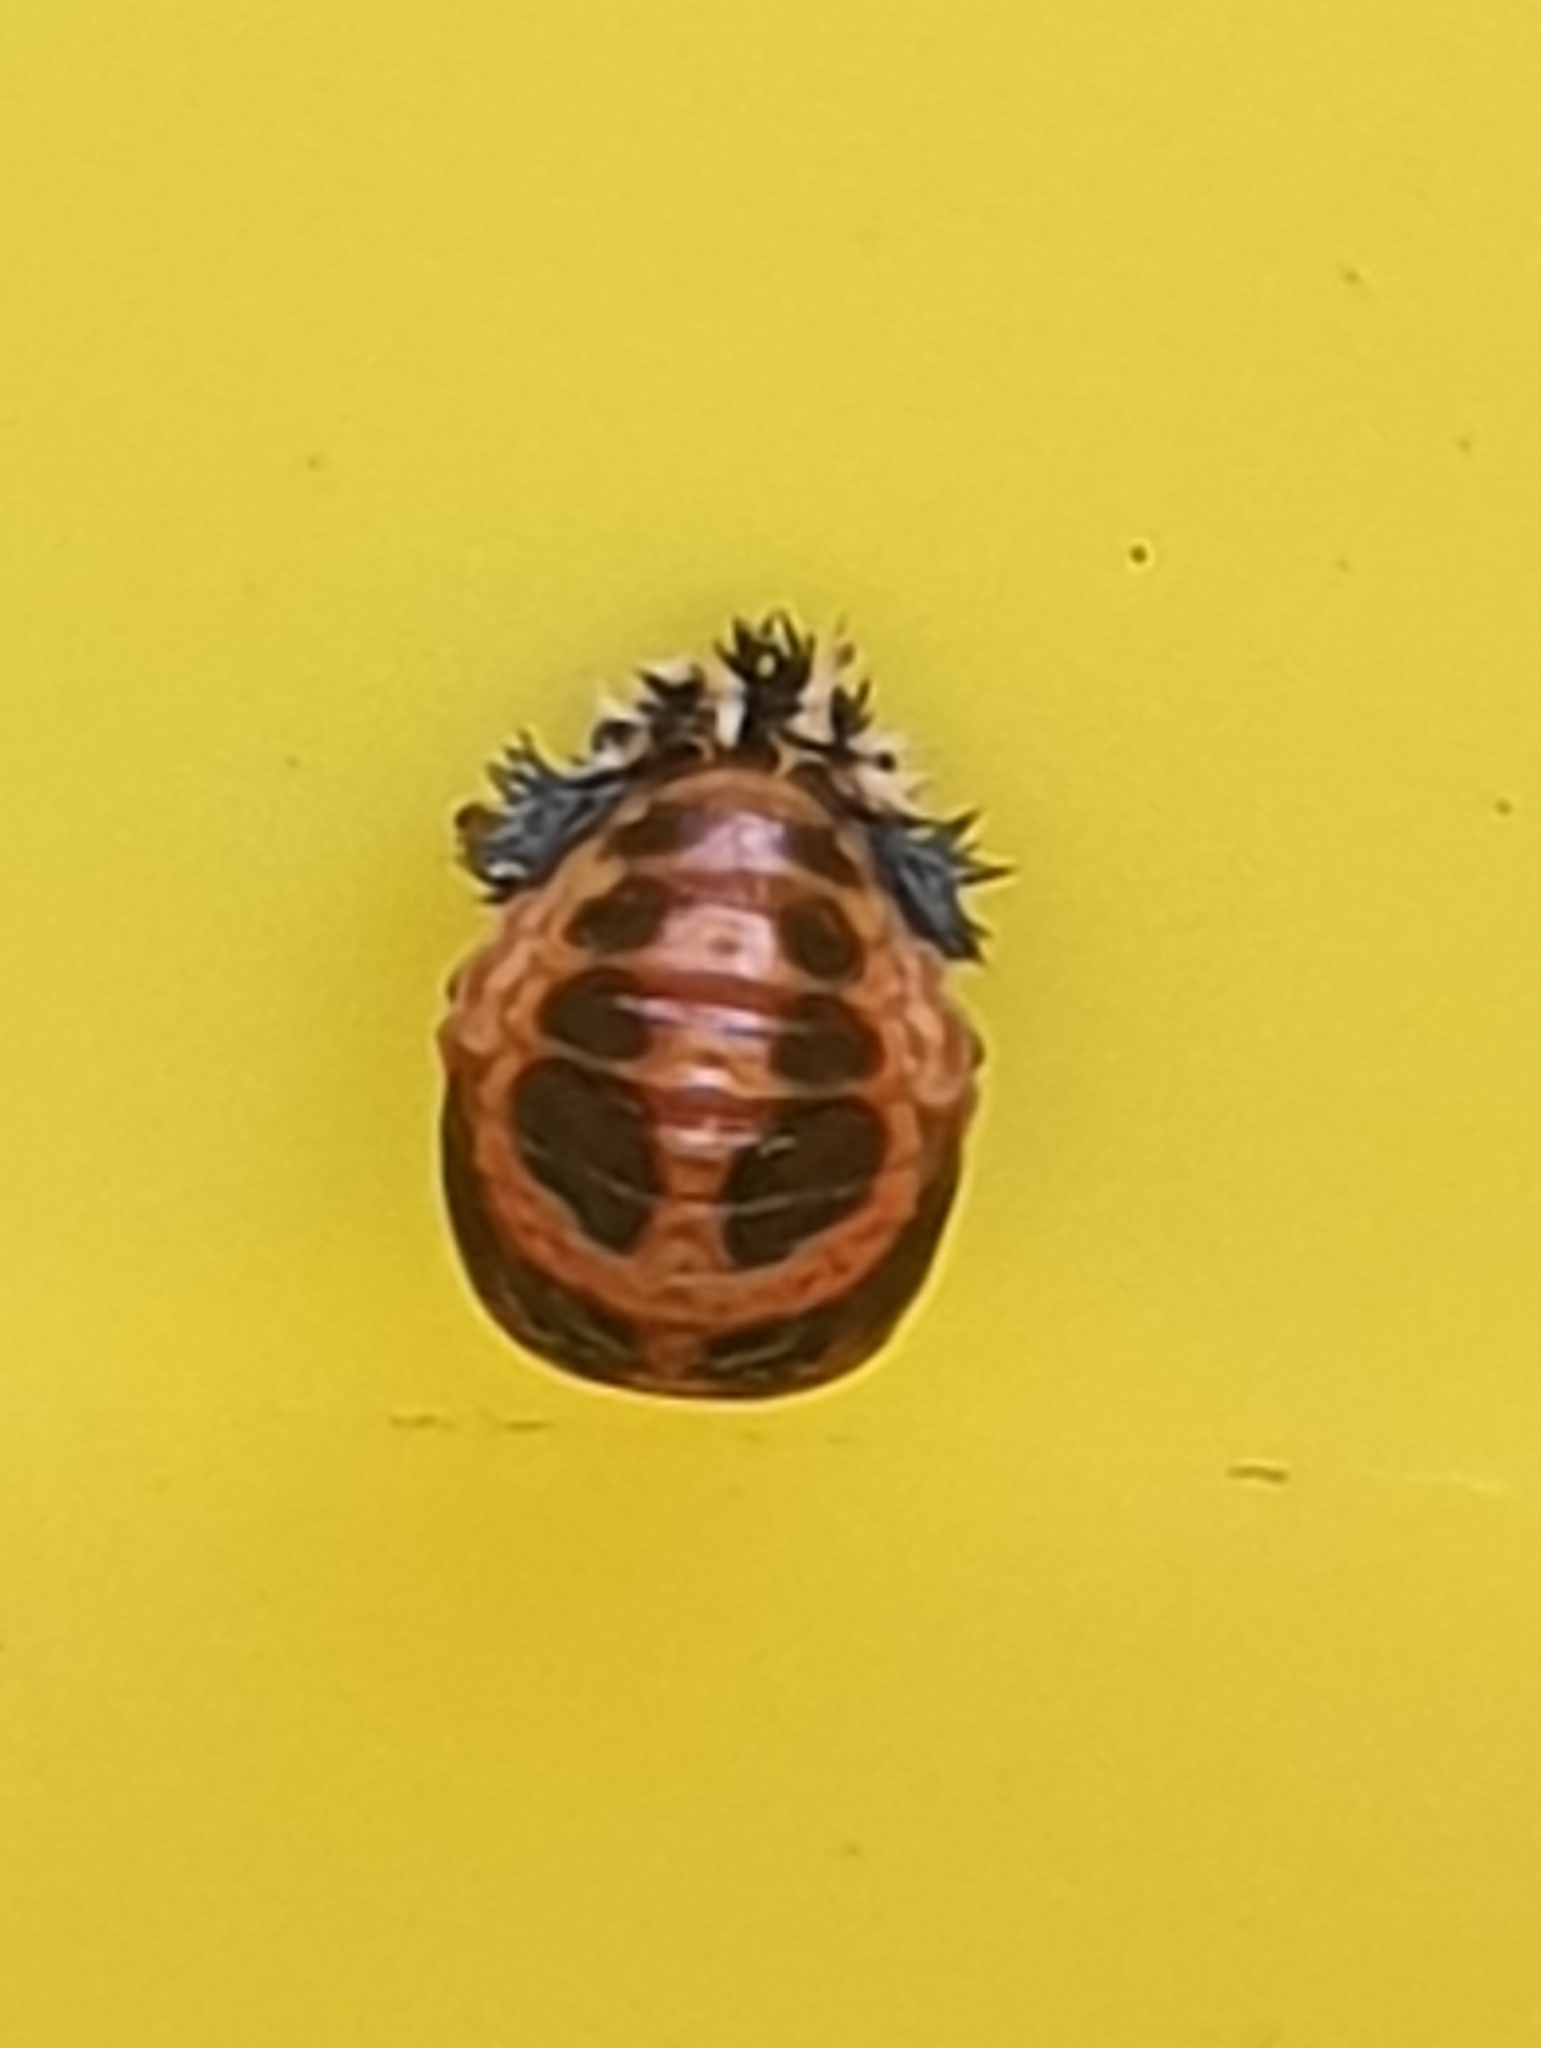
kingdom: Animalia
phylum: Arthropoda
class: Insecta
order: Coleoptera
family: Coccinellidae
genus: Harmonia
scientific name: Harmonia axyridis
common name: Harlequin ladybird
